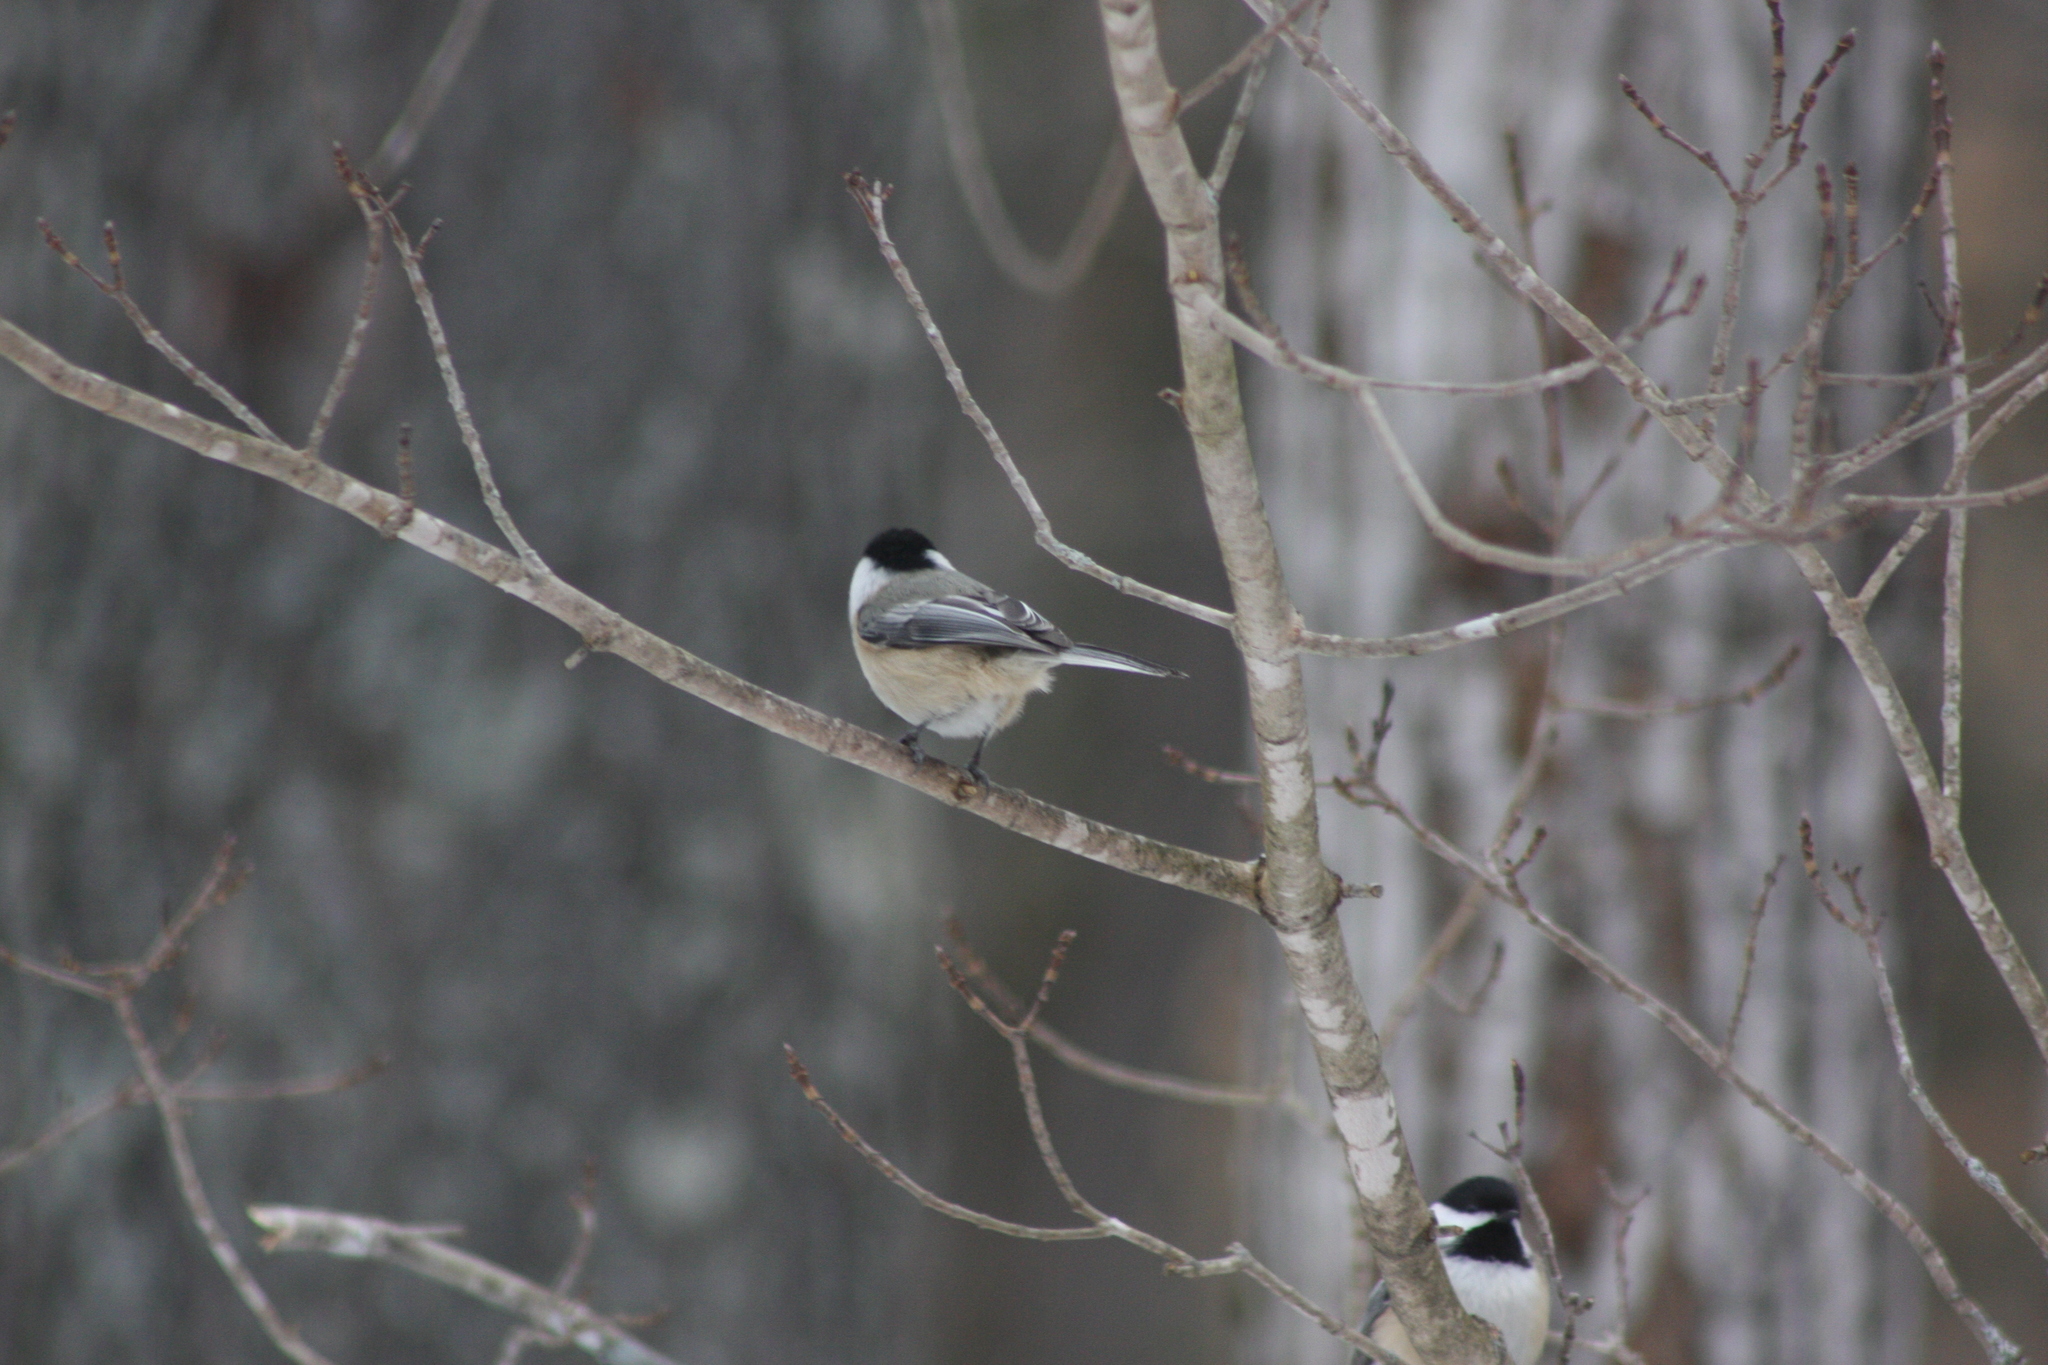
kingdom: Animalia
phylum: Chordata
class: Aves
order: Passeriformes
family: Paridae
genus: Poecile
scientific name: Poecile atricapillus
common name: Black-capped chickadee
